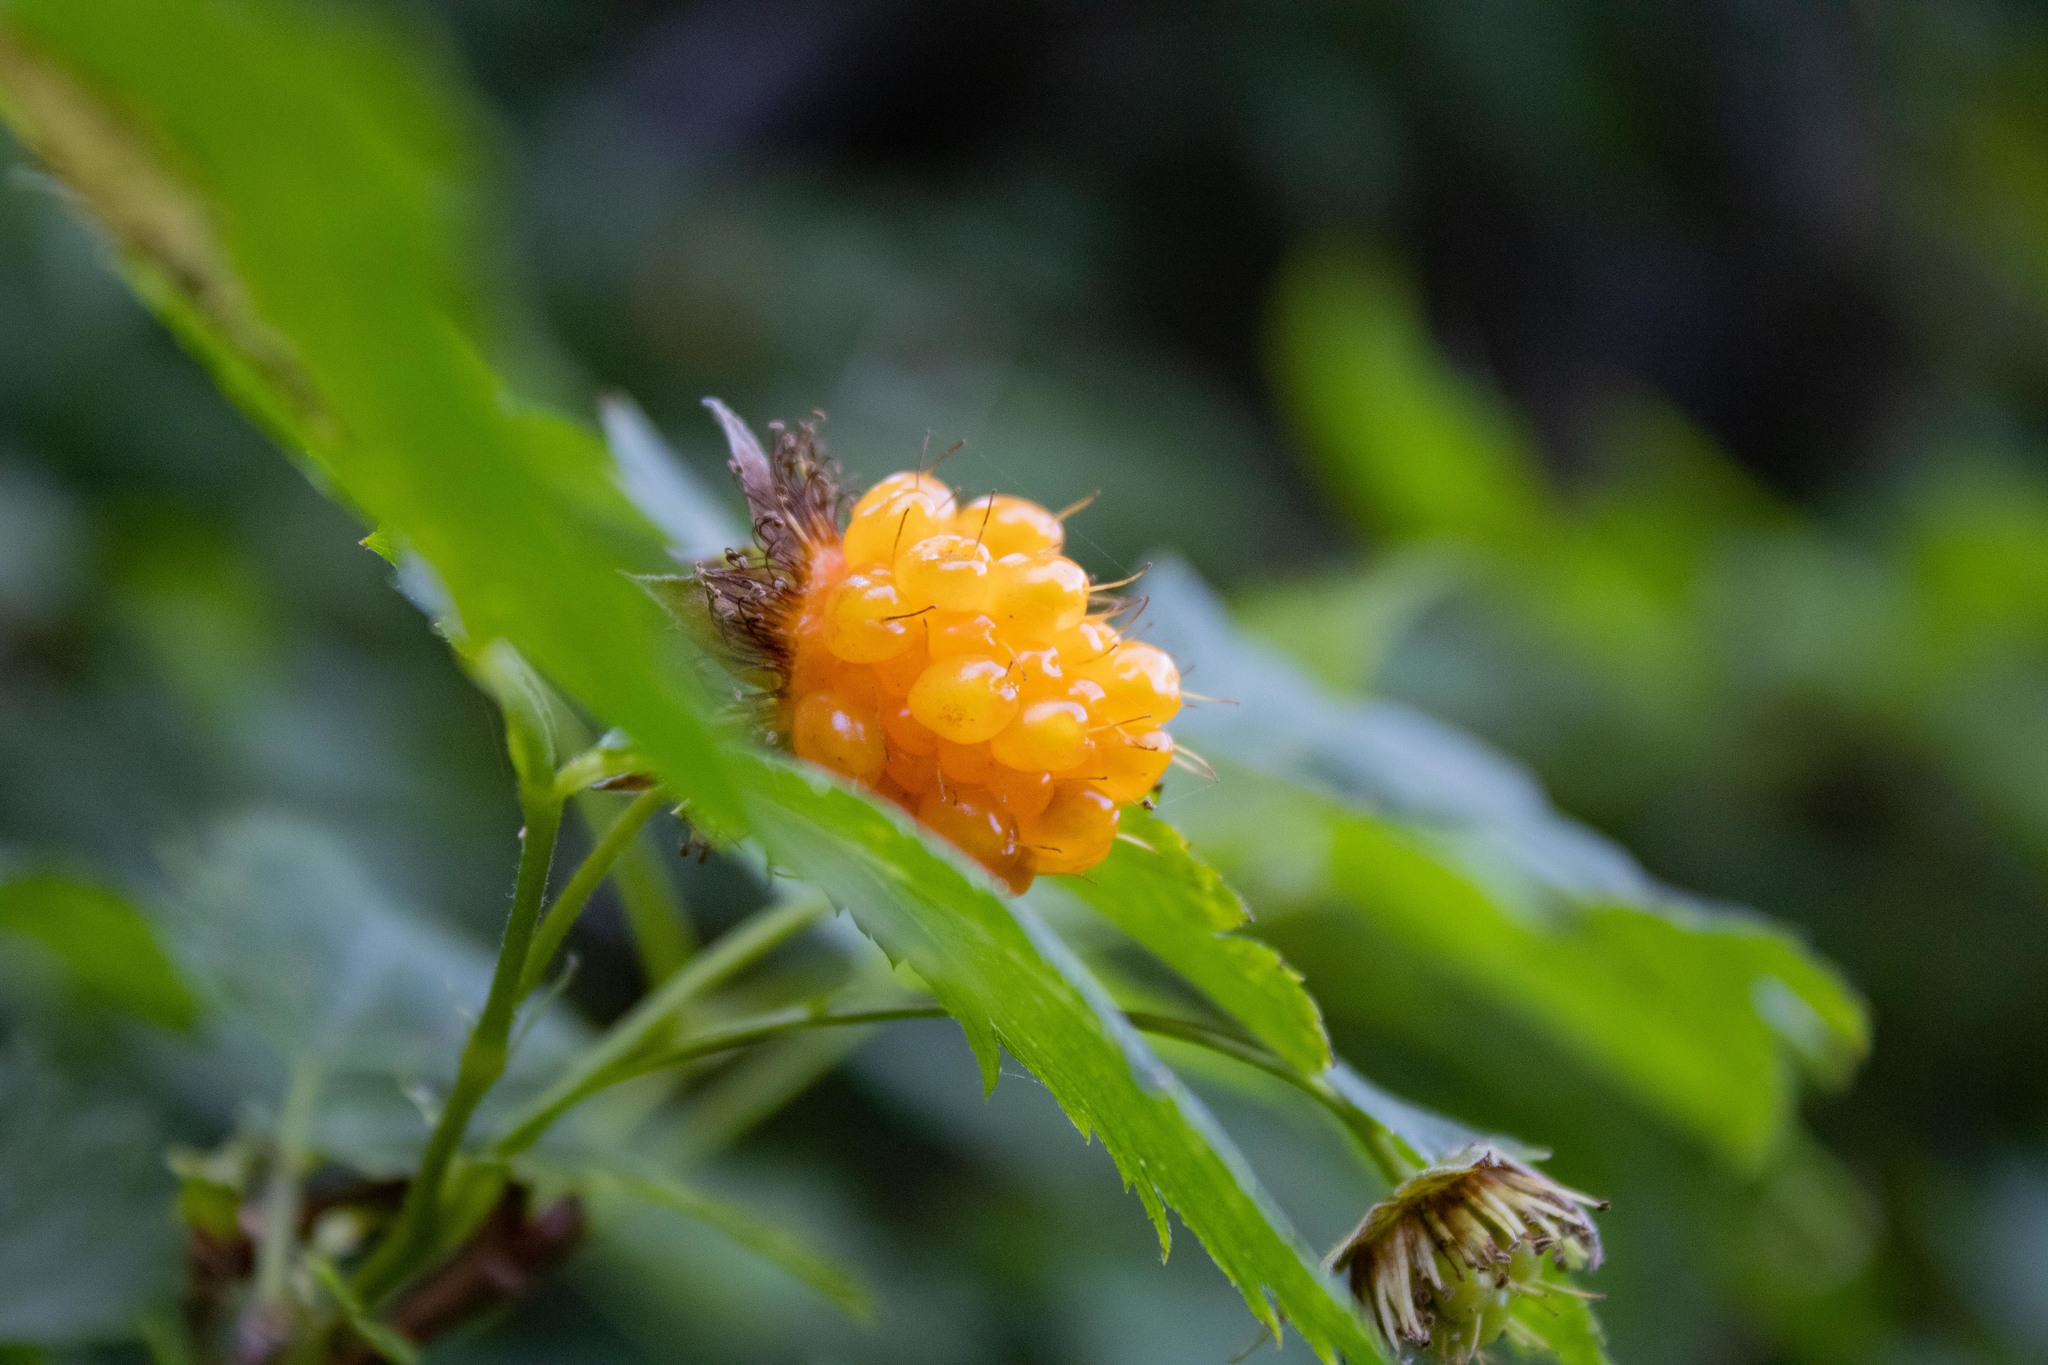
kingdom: Plantae
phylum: Tracheophyta
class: Magnoliopsida
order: Rosales
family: Rosaceae
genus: Rubus
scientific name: Rubus spectabilis
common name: Salmonberry
